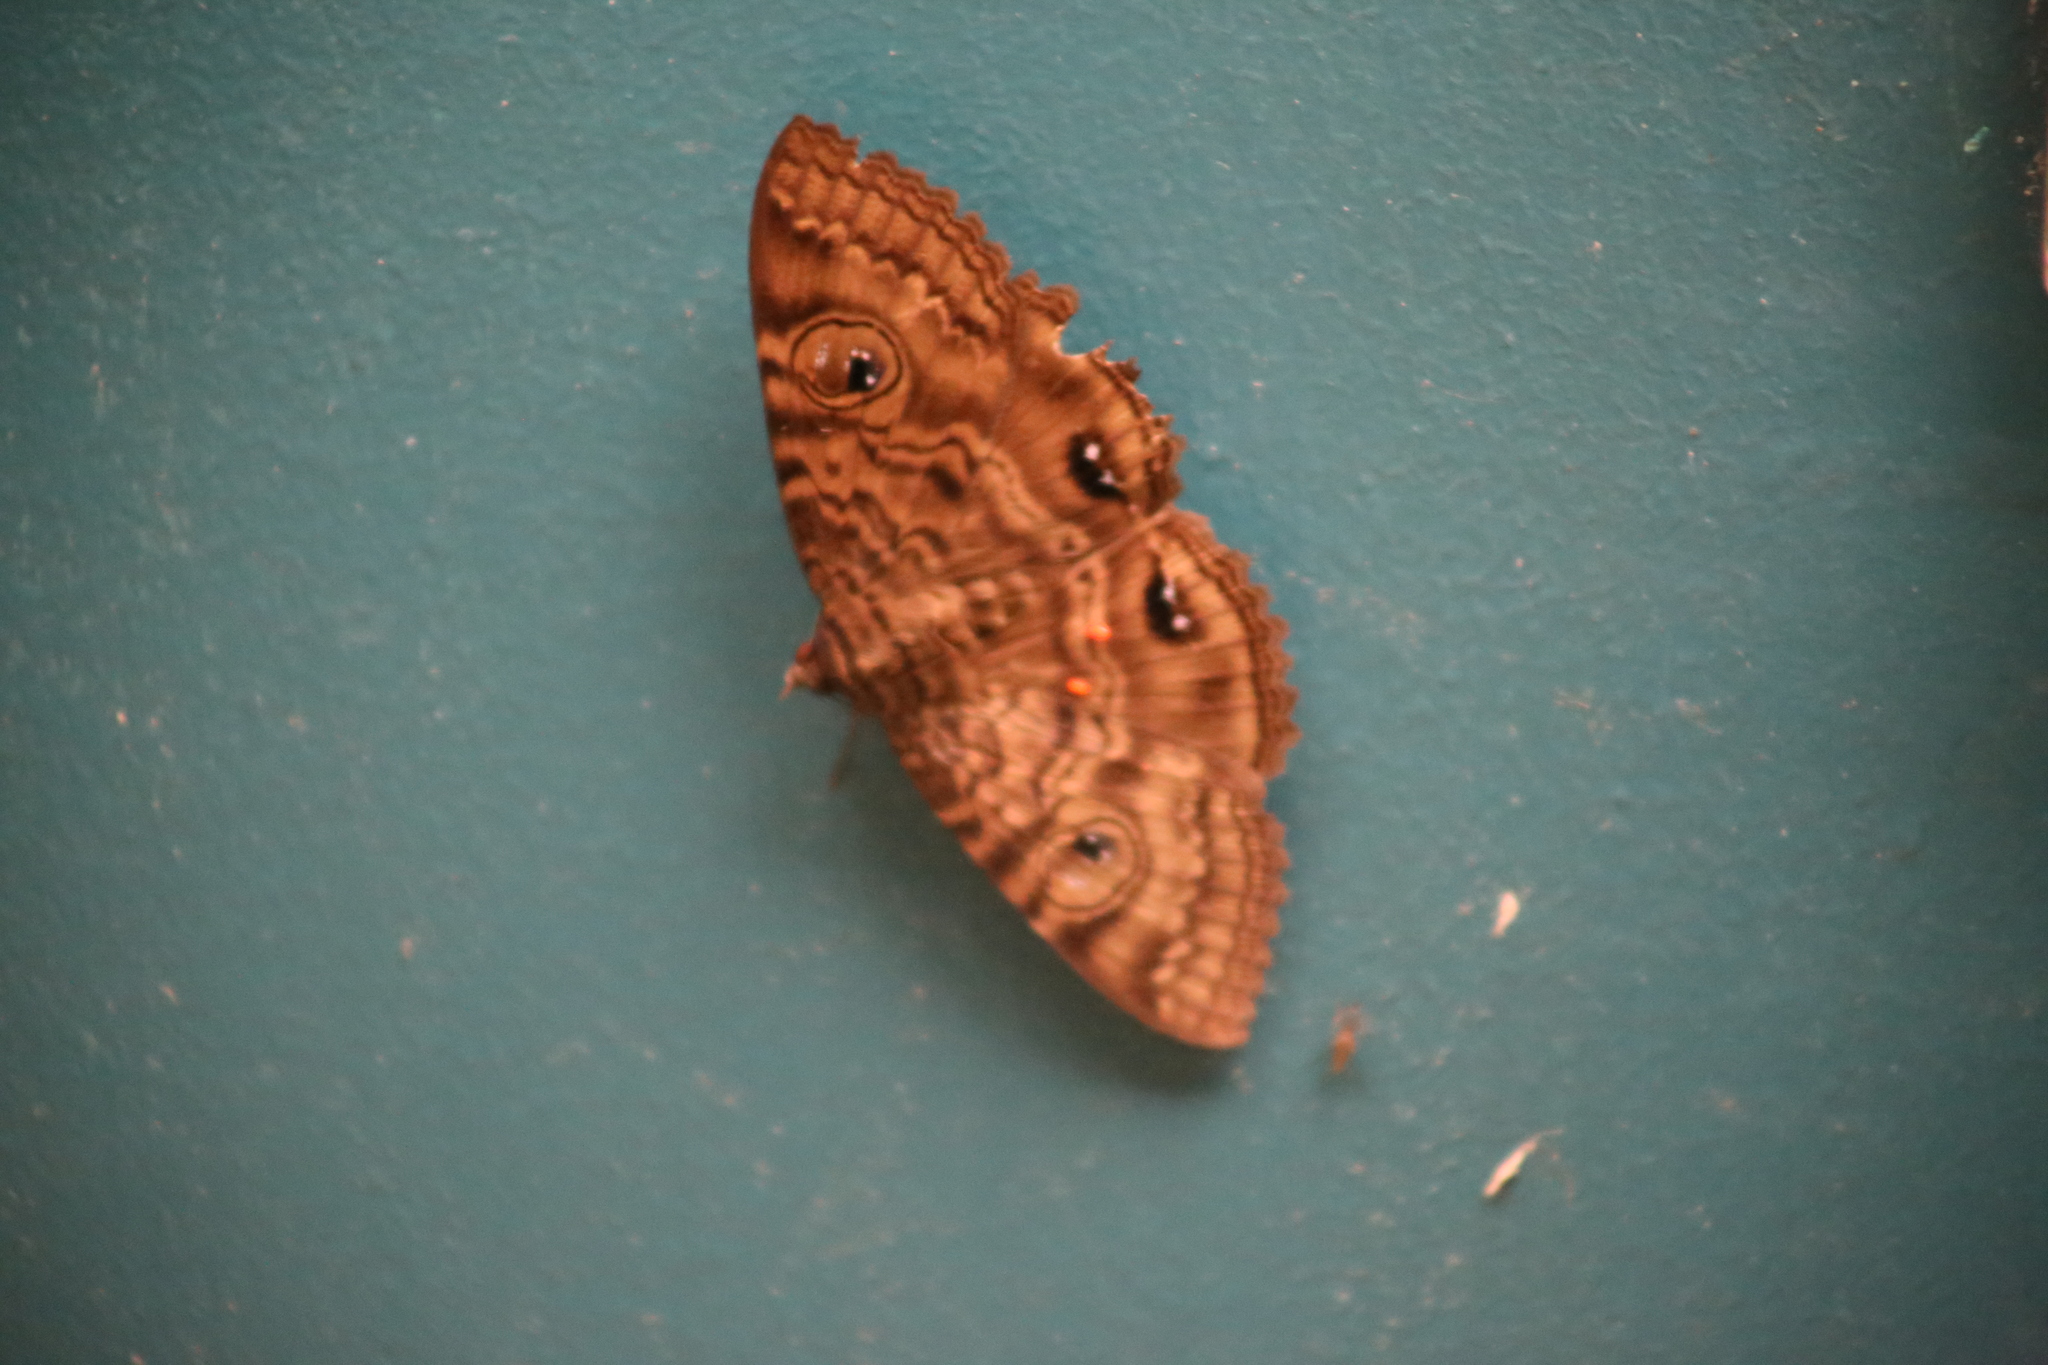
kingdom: Animalia
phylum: Arthropoda
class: Insecta
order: Lepidoptera
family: Erebidae
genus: Speiredonia
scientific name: Speiredonia spectans
